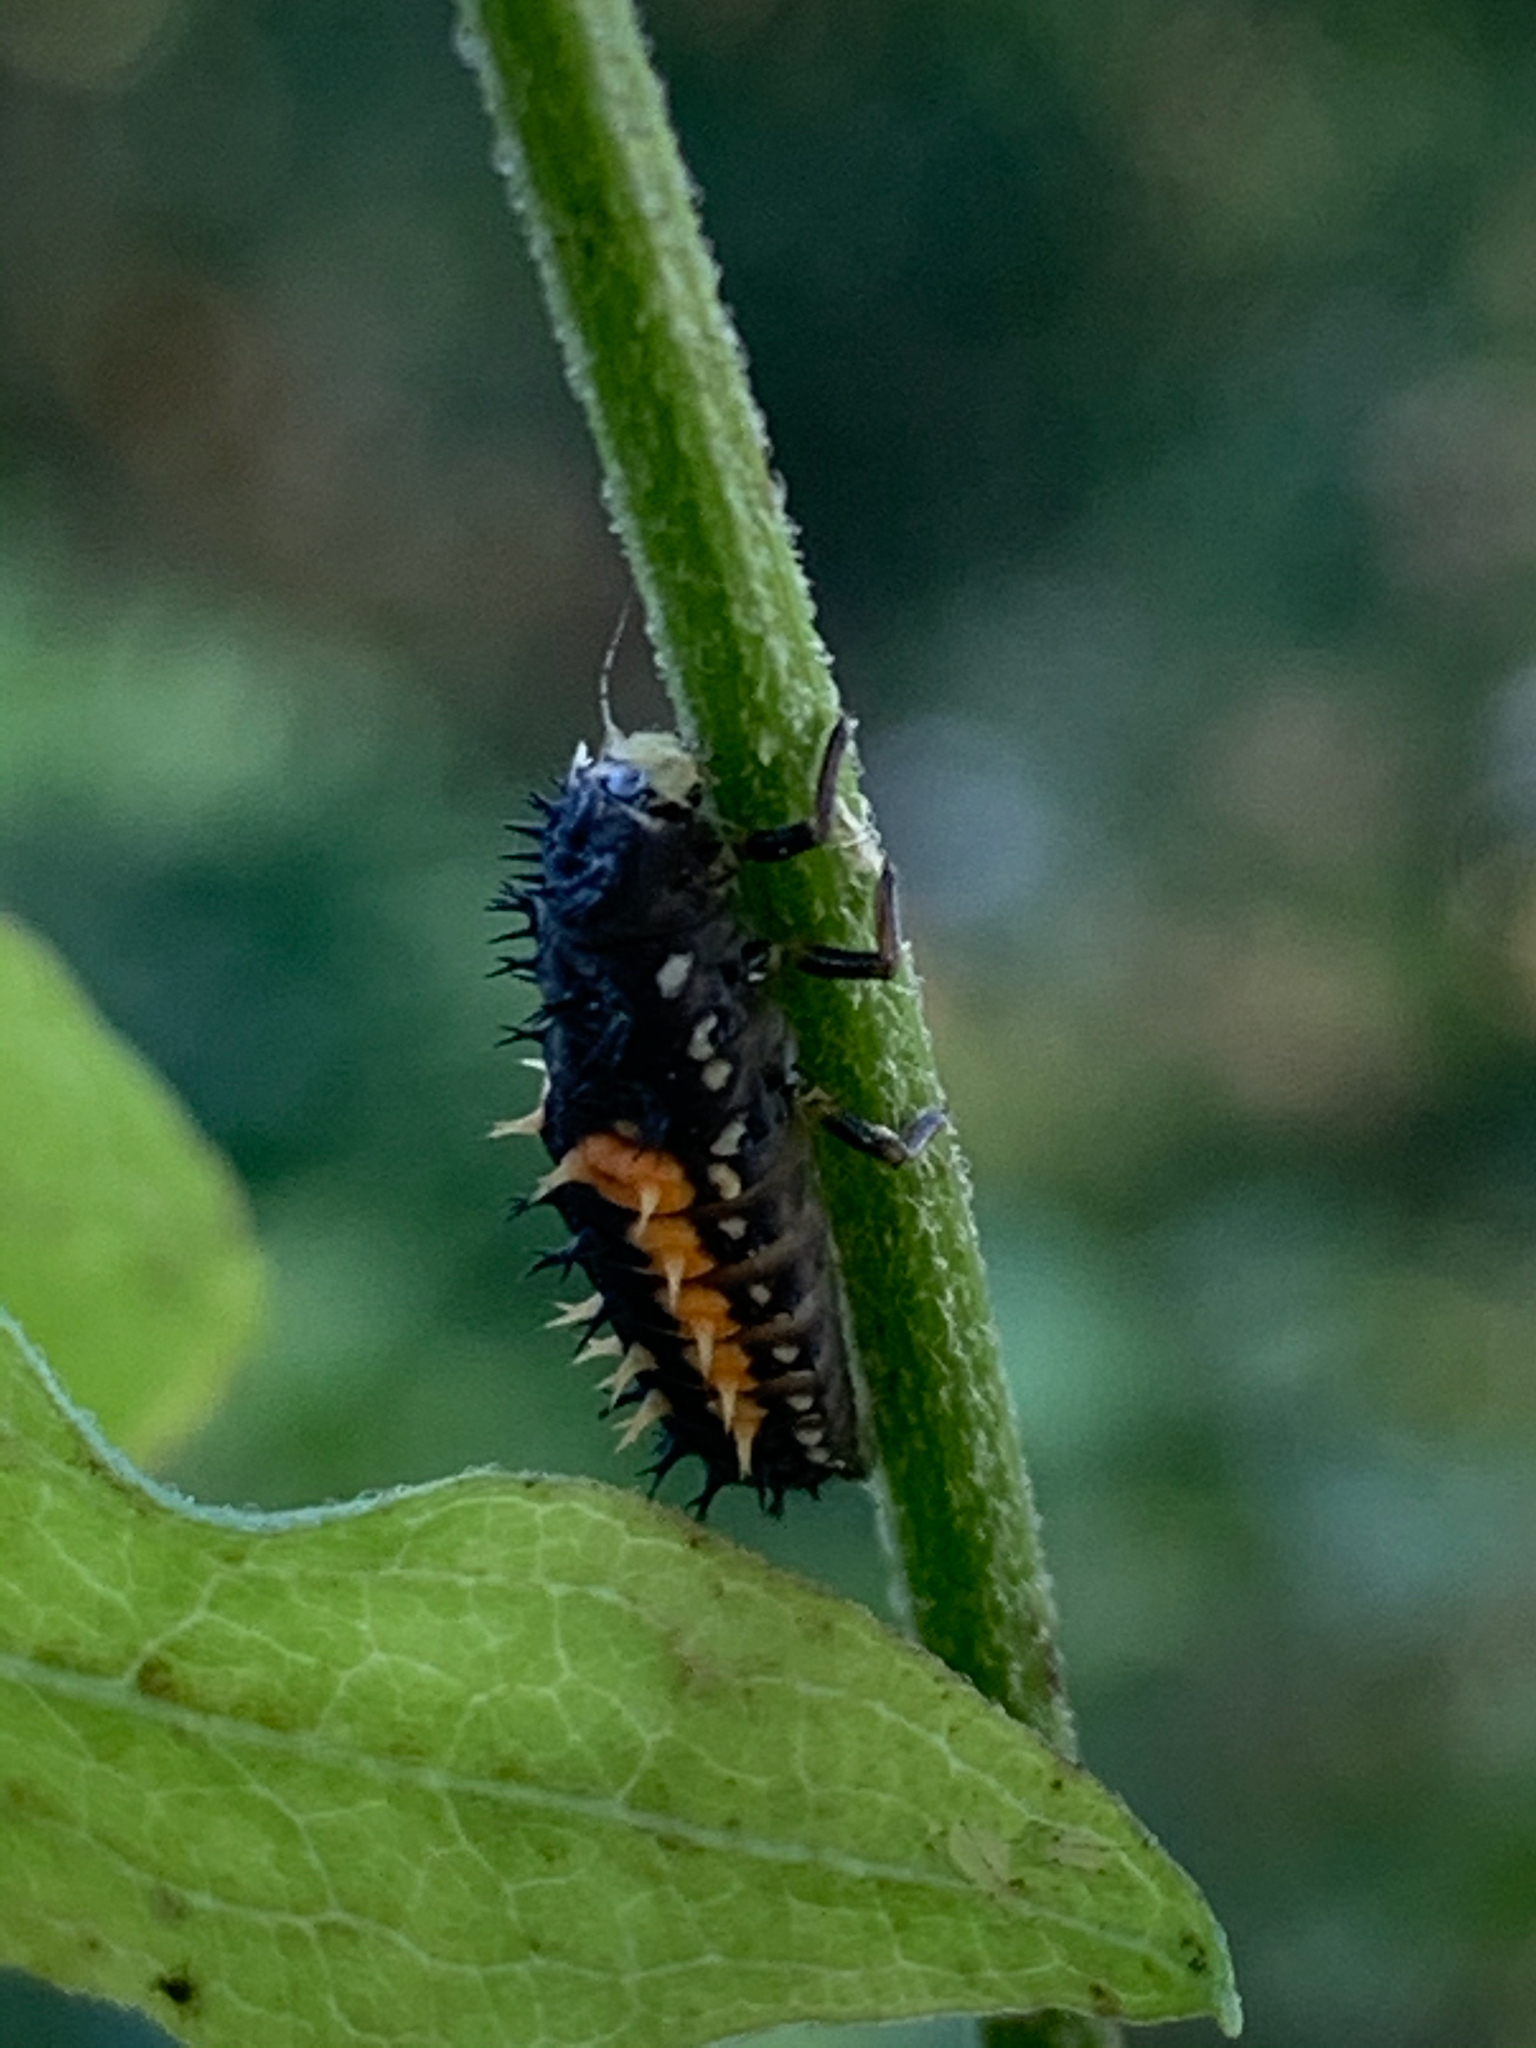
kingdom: Animalia
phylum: Arthropoda
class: Insecta
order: Coleoptera
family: Coccinellidae
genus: Harmonia
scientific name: Harmonia axyridis
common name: Harlequin ladybird
